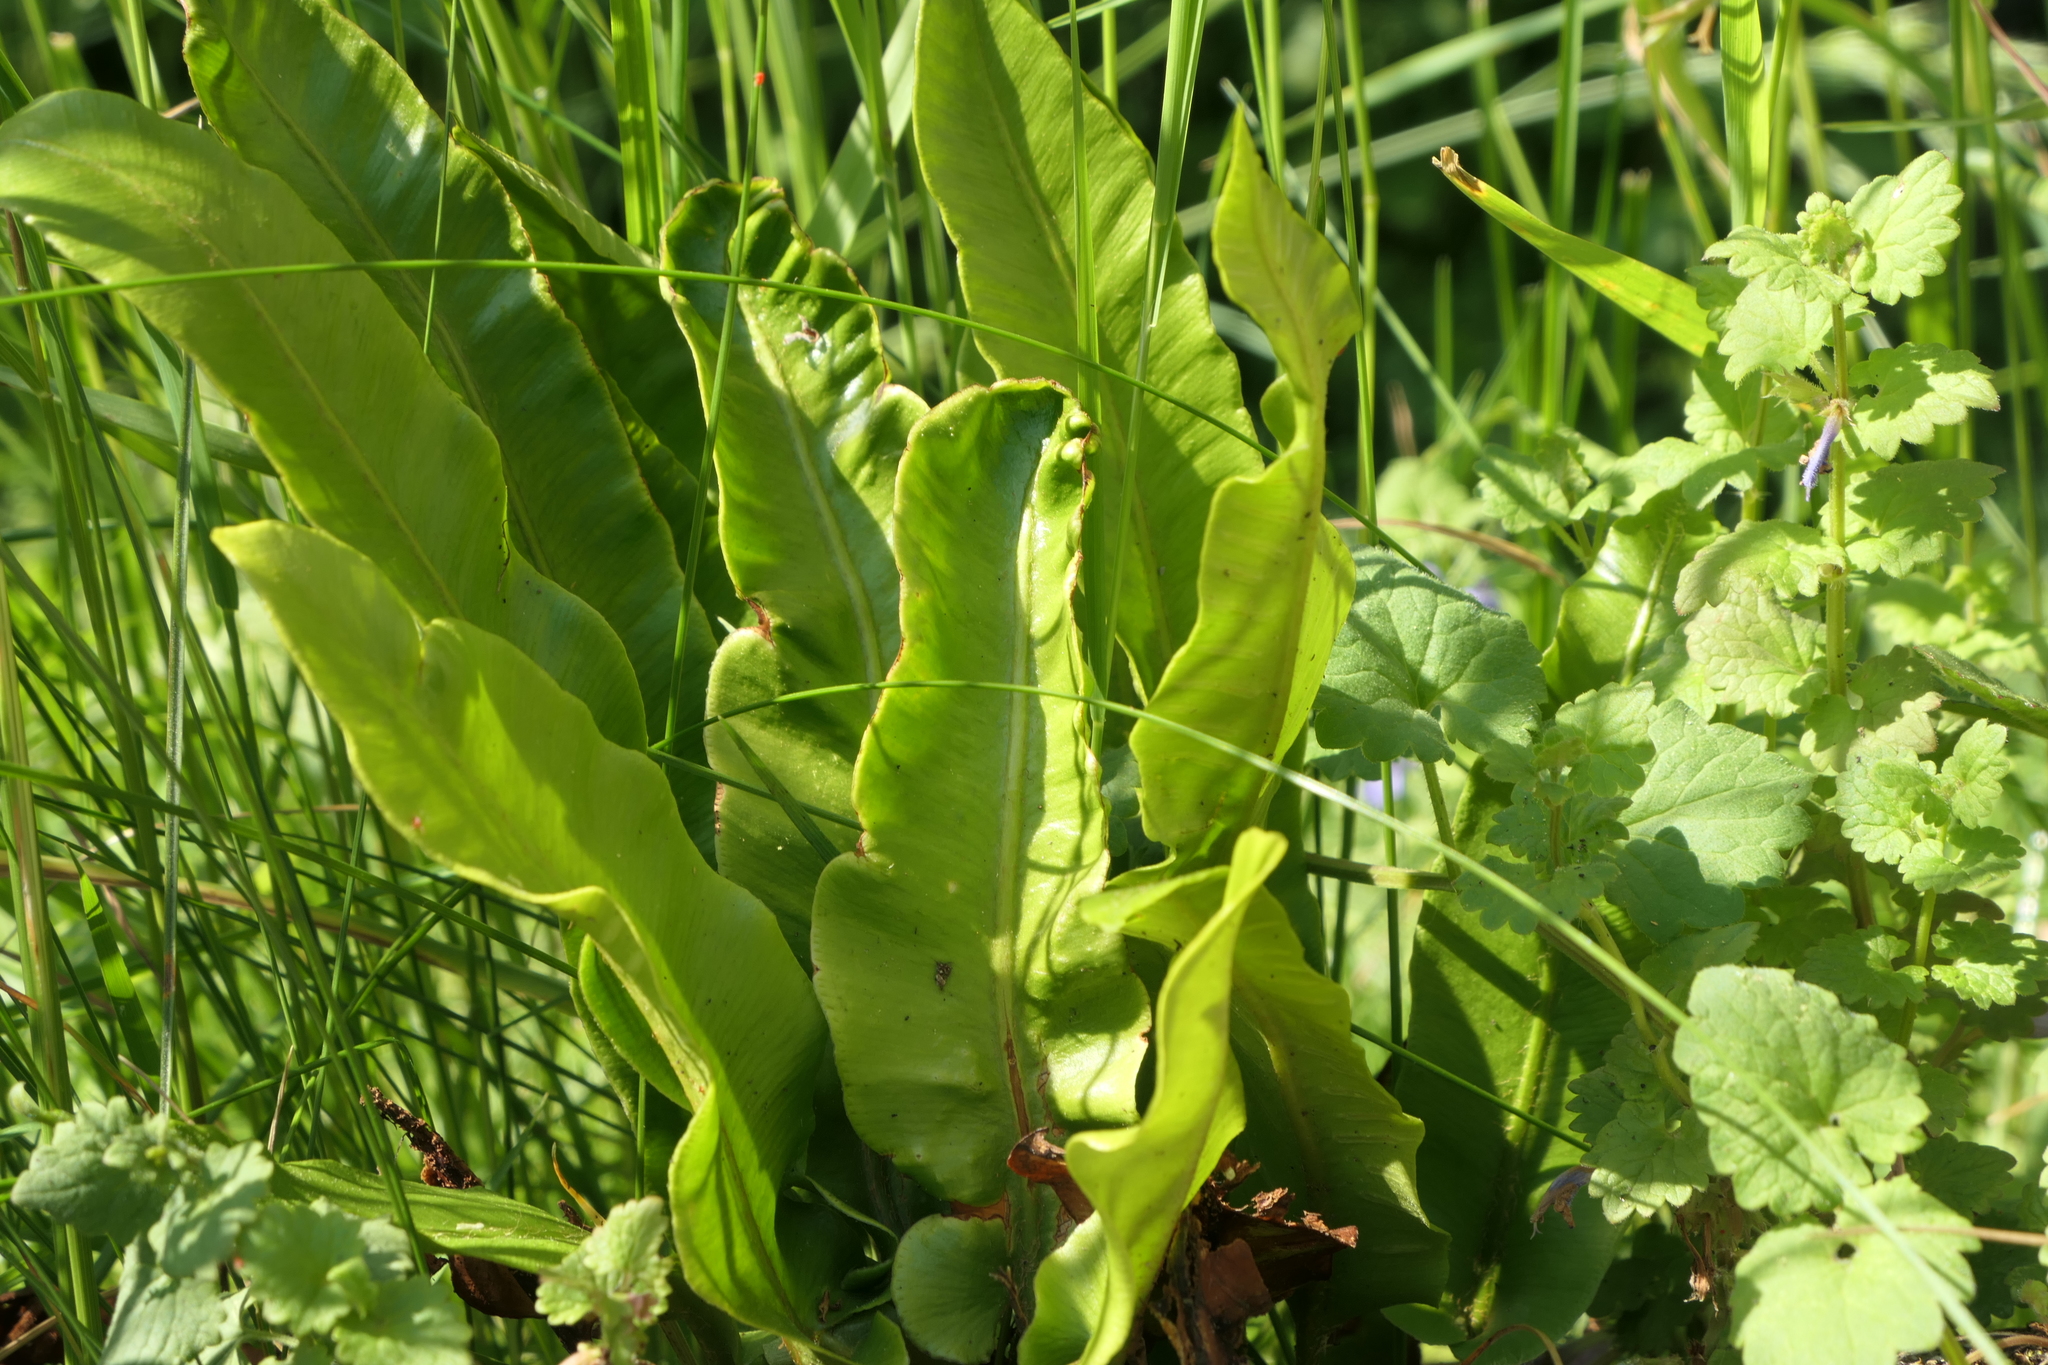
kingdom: Plantae
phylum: Tracheophyta
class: Polypodiopsida
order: Polypodiales
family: Aspleniaceae
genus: Asplenium
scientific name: Asplenium scolopendrium
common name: Hart's-tongue fern
